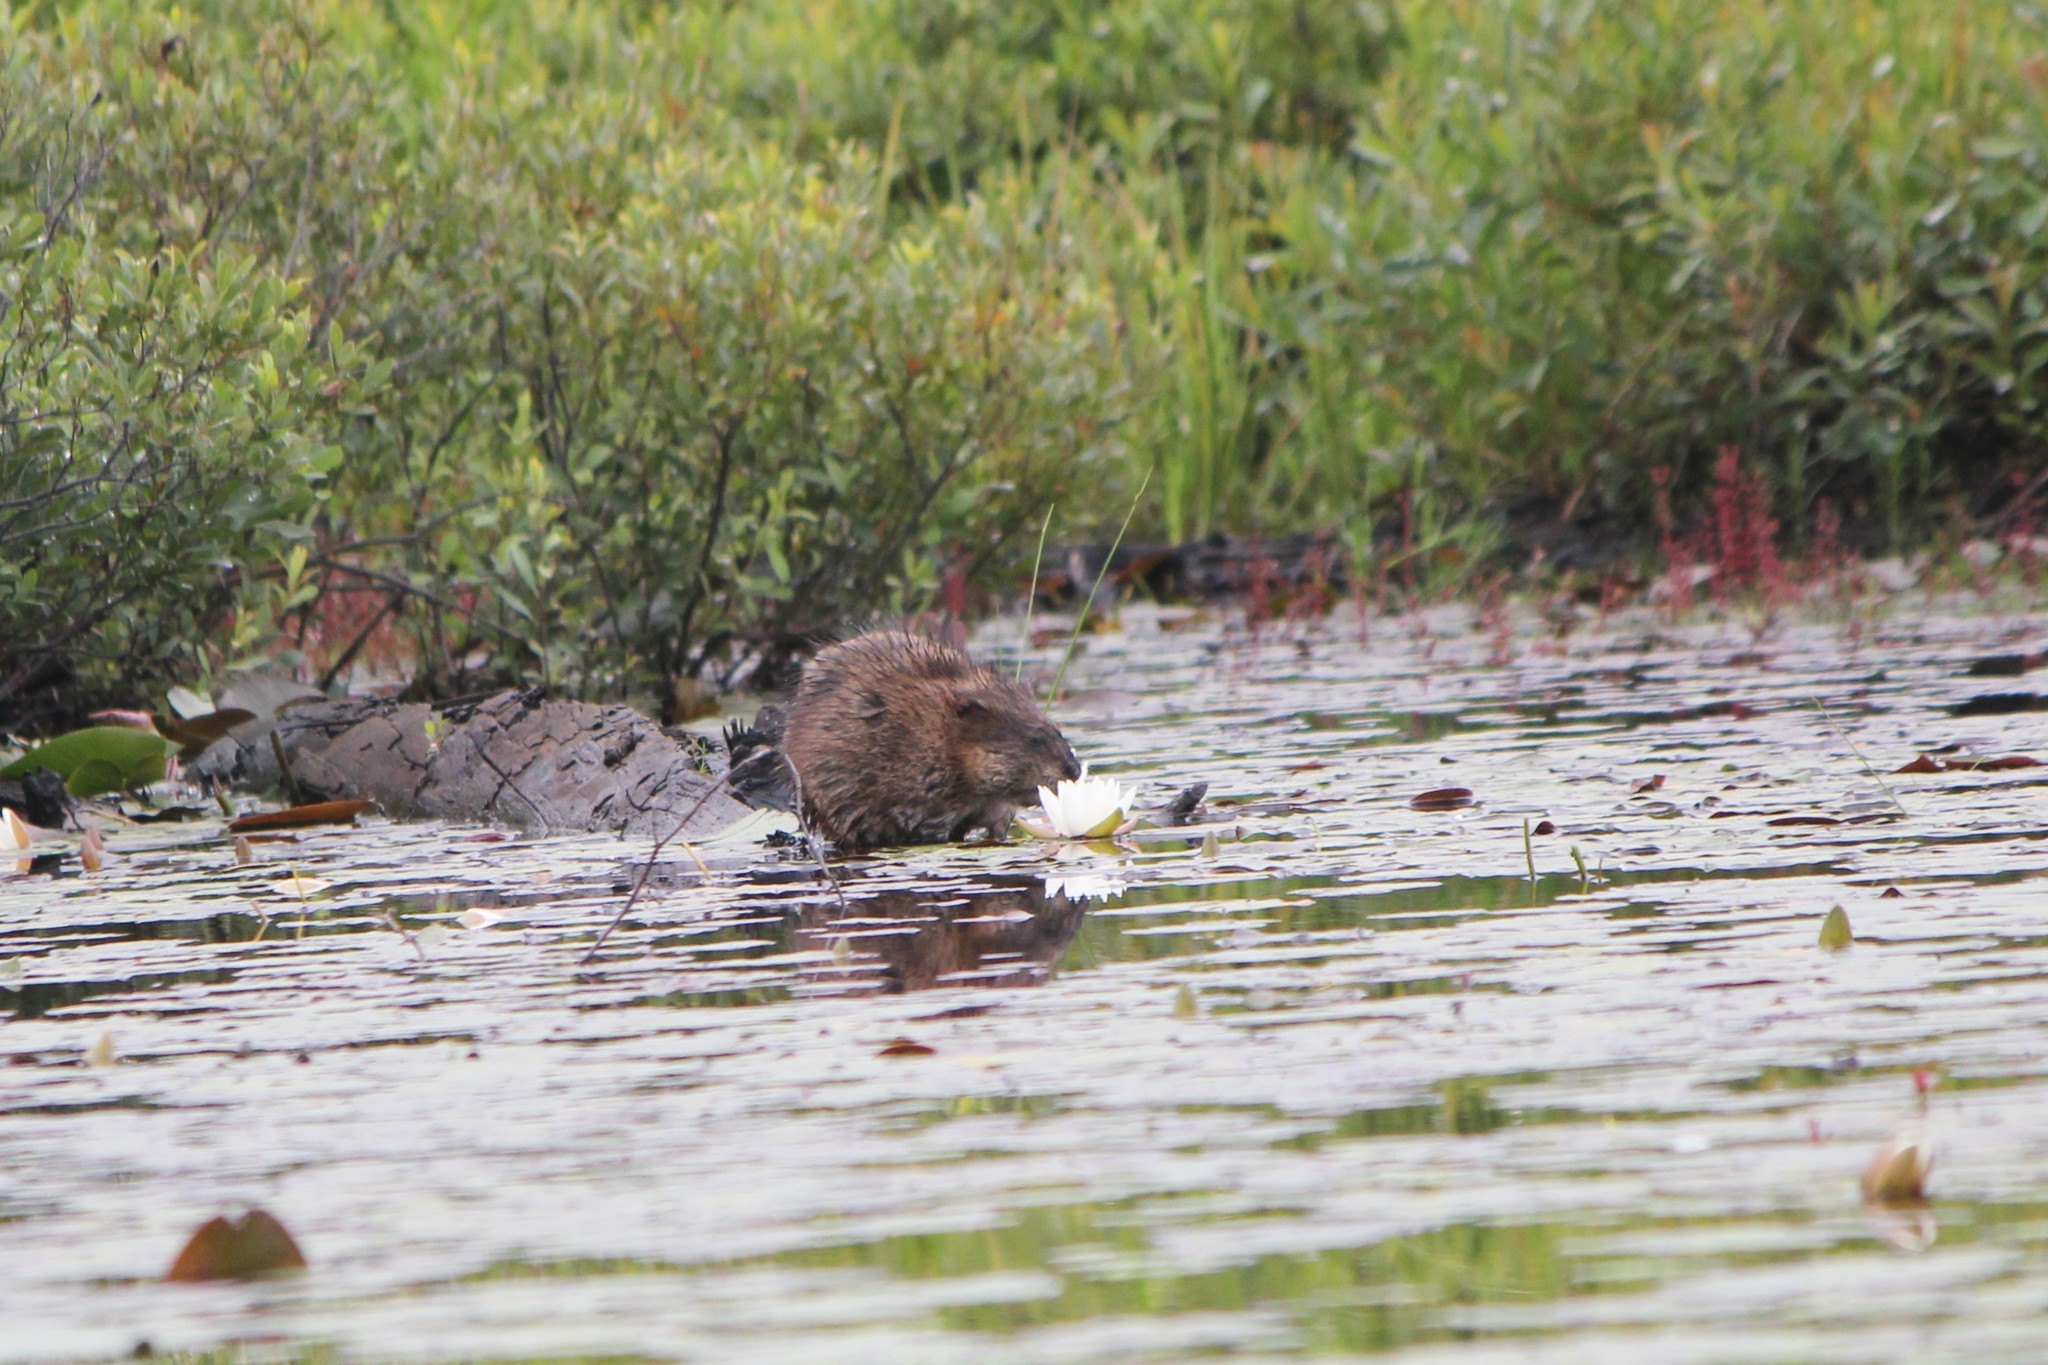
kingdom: Animalia
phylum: Chordata
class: Mammalia
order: Rodentia
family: Cricetidae
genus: Ondatra
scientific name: Ondatra zibethicus
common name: Muskrat
